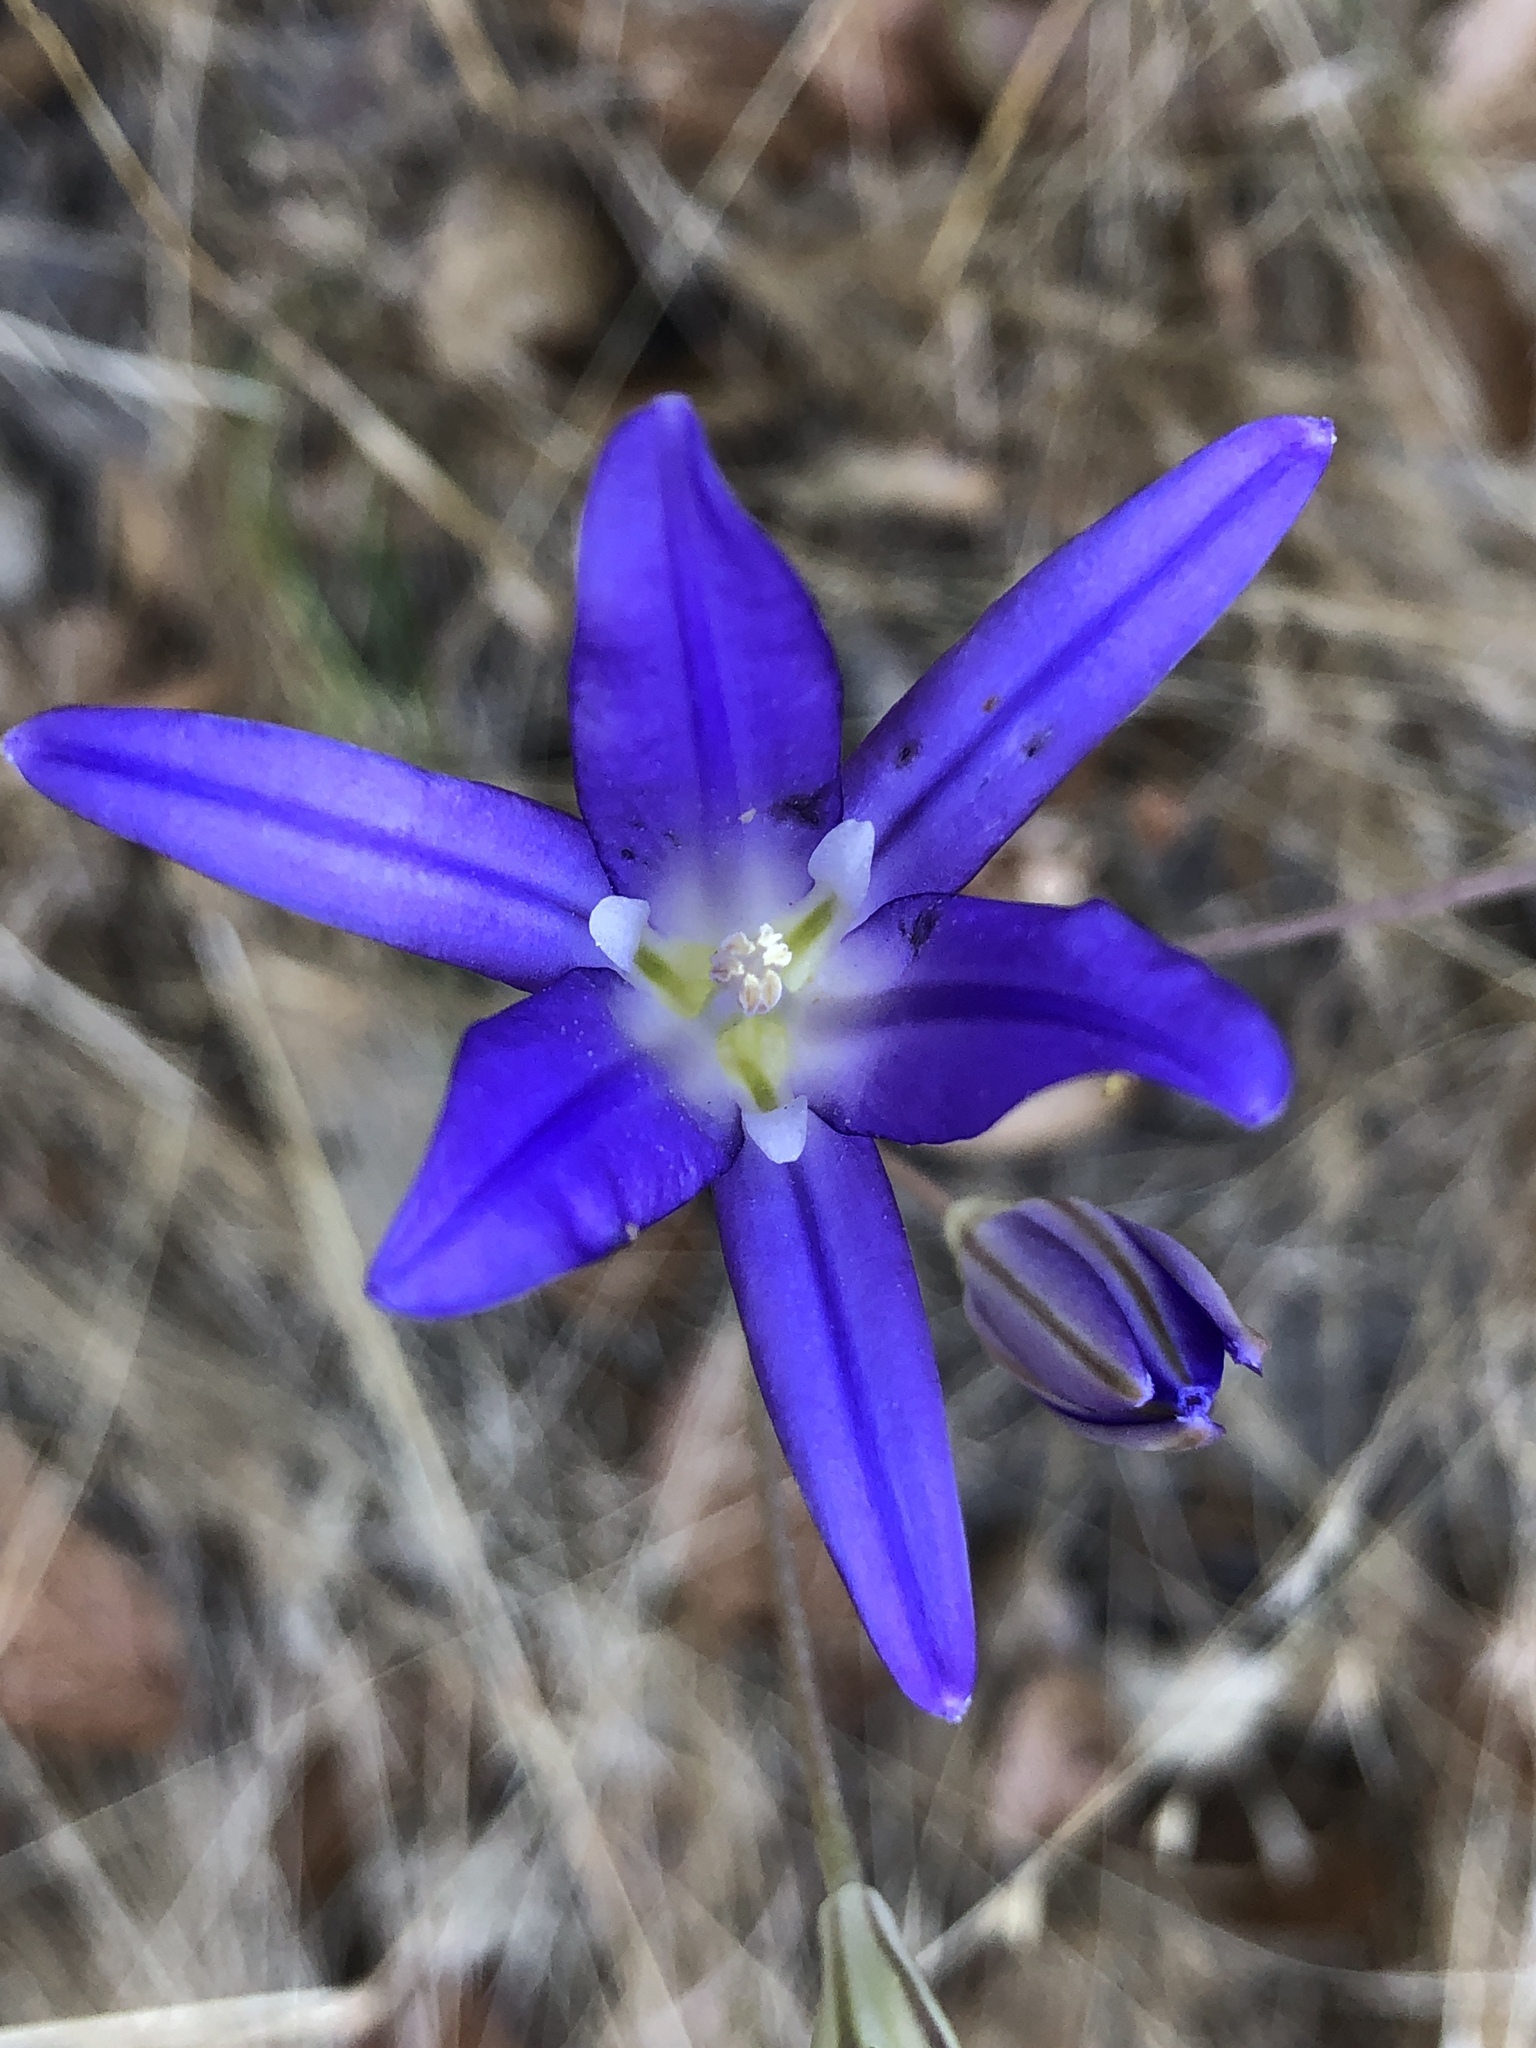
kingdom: Plantae
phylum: Tracheophyta
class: Liliopsida
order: Asparagales
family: Asparagaceae
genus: Brodiaea
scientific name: Brodiaea elegans
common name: Elegant cluster-lily
